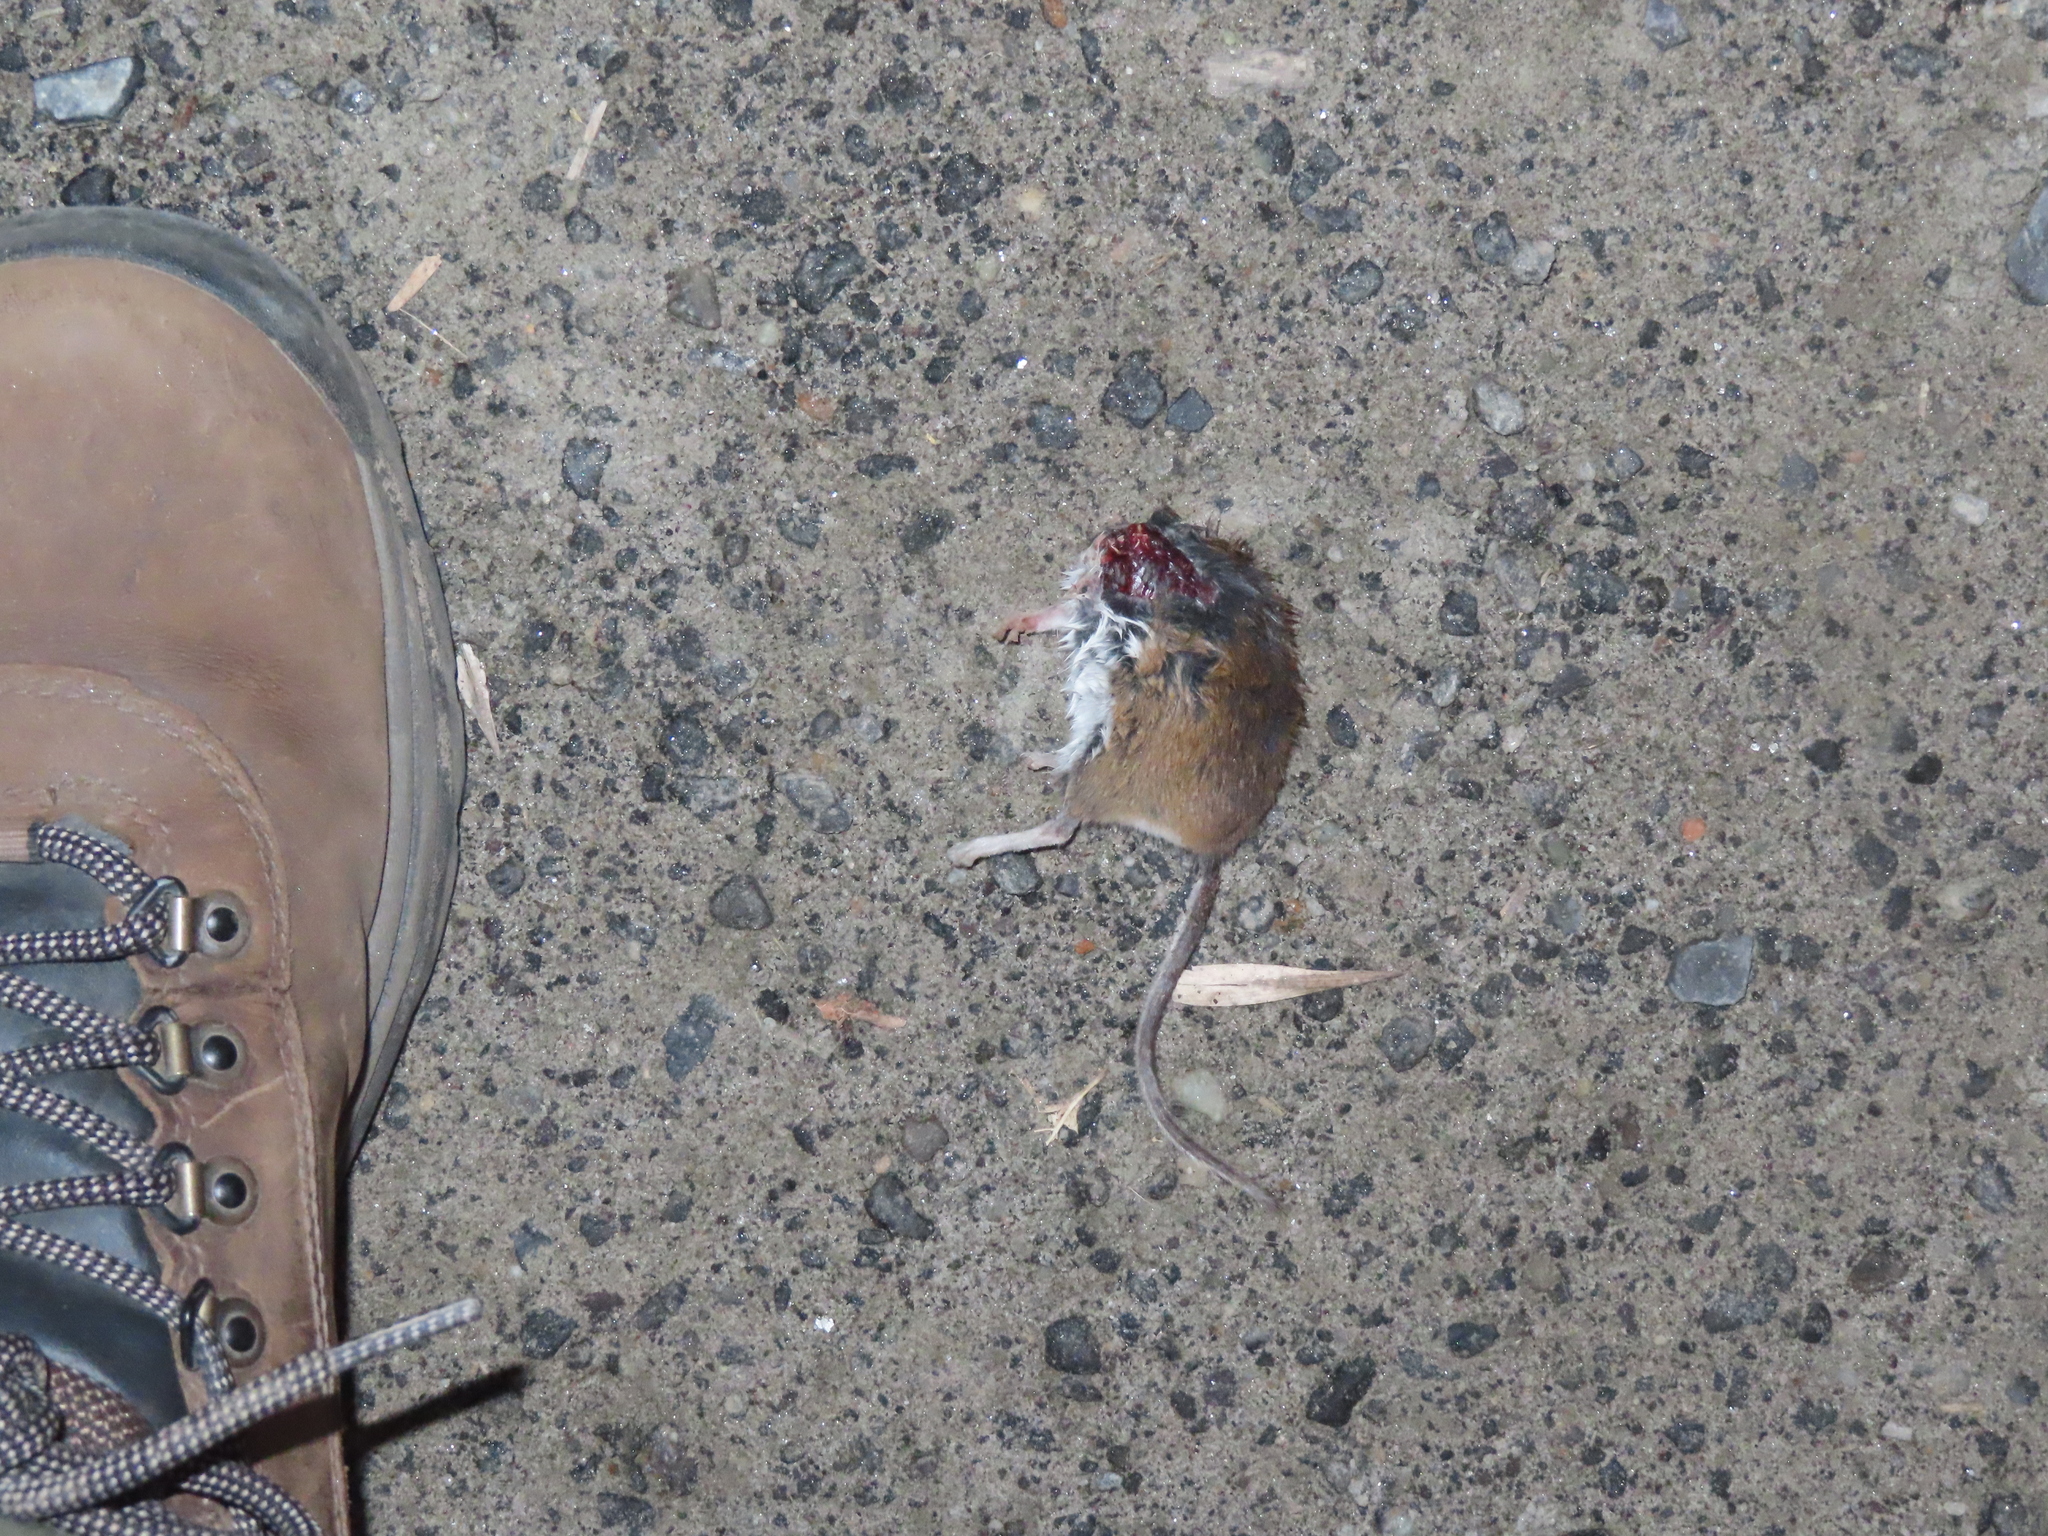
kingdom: Animalia
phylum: Chordata
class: Mammalia
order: Rodentia
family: Cricetidae
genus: Peromyscus
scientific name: Peromyscus leucopus
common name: White-footed deermouse
